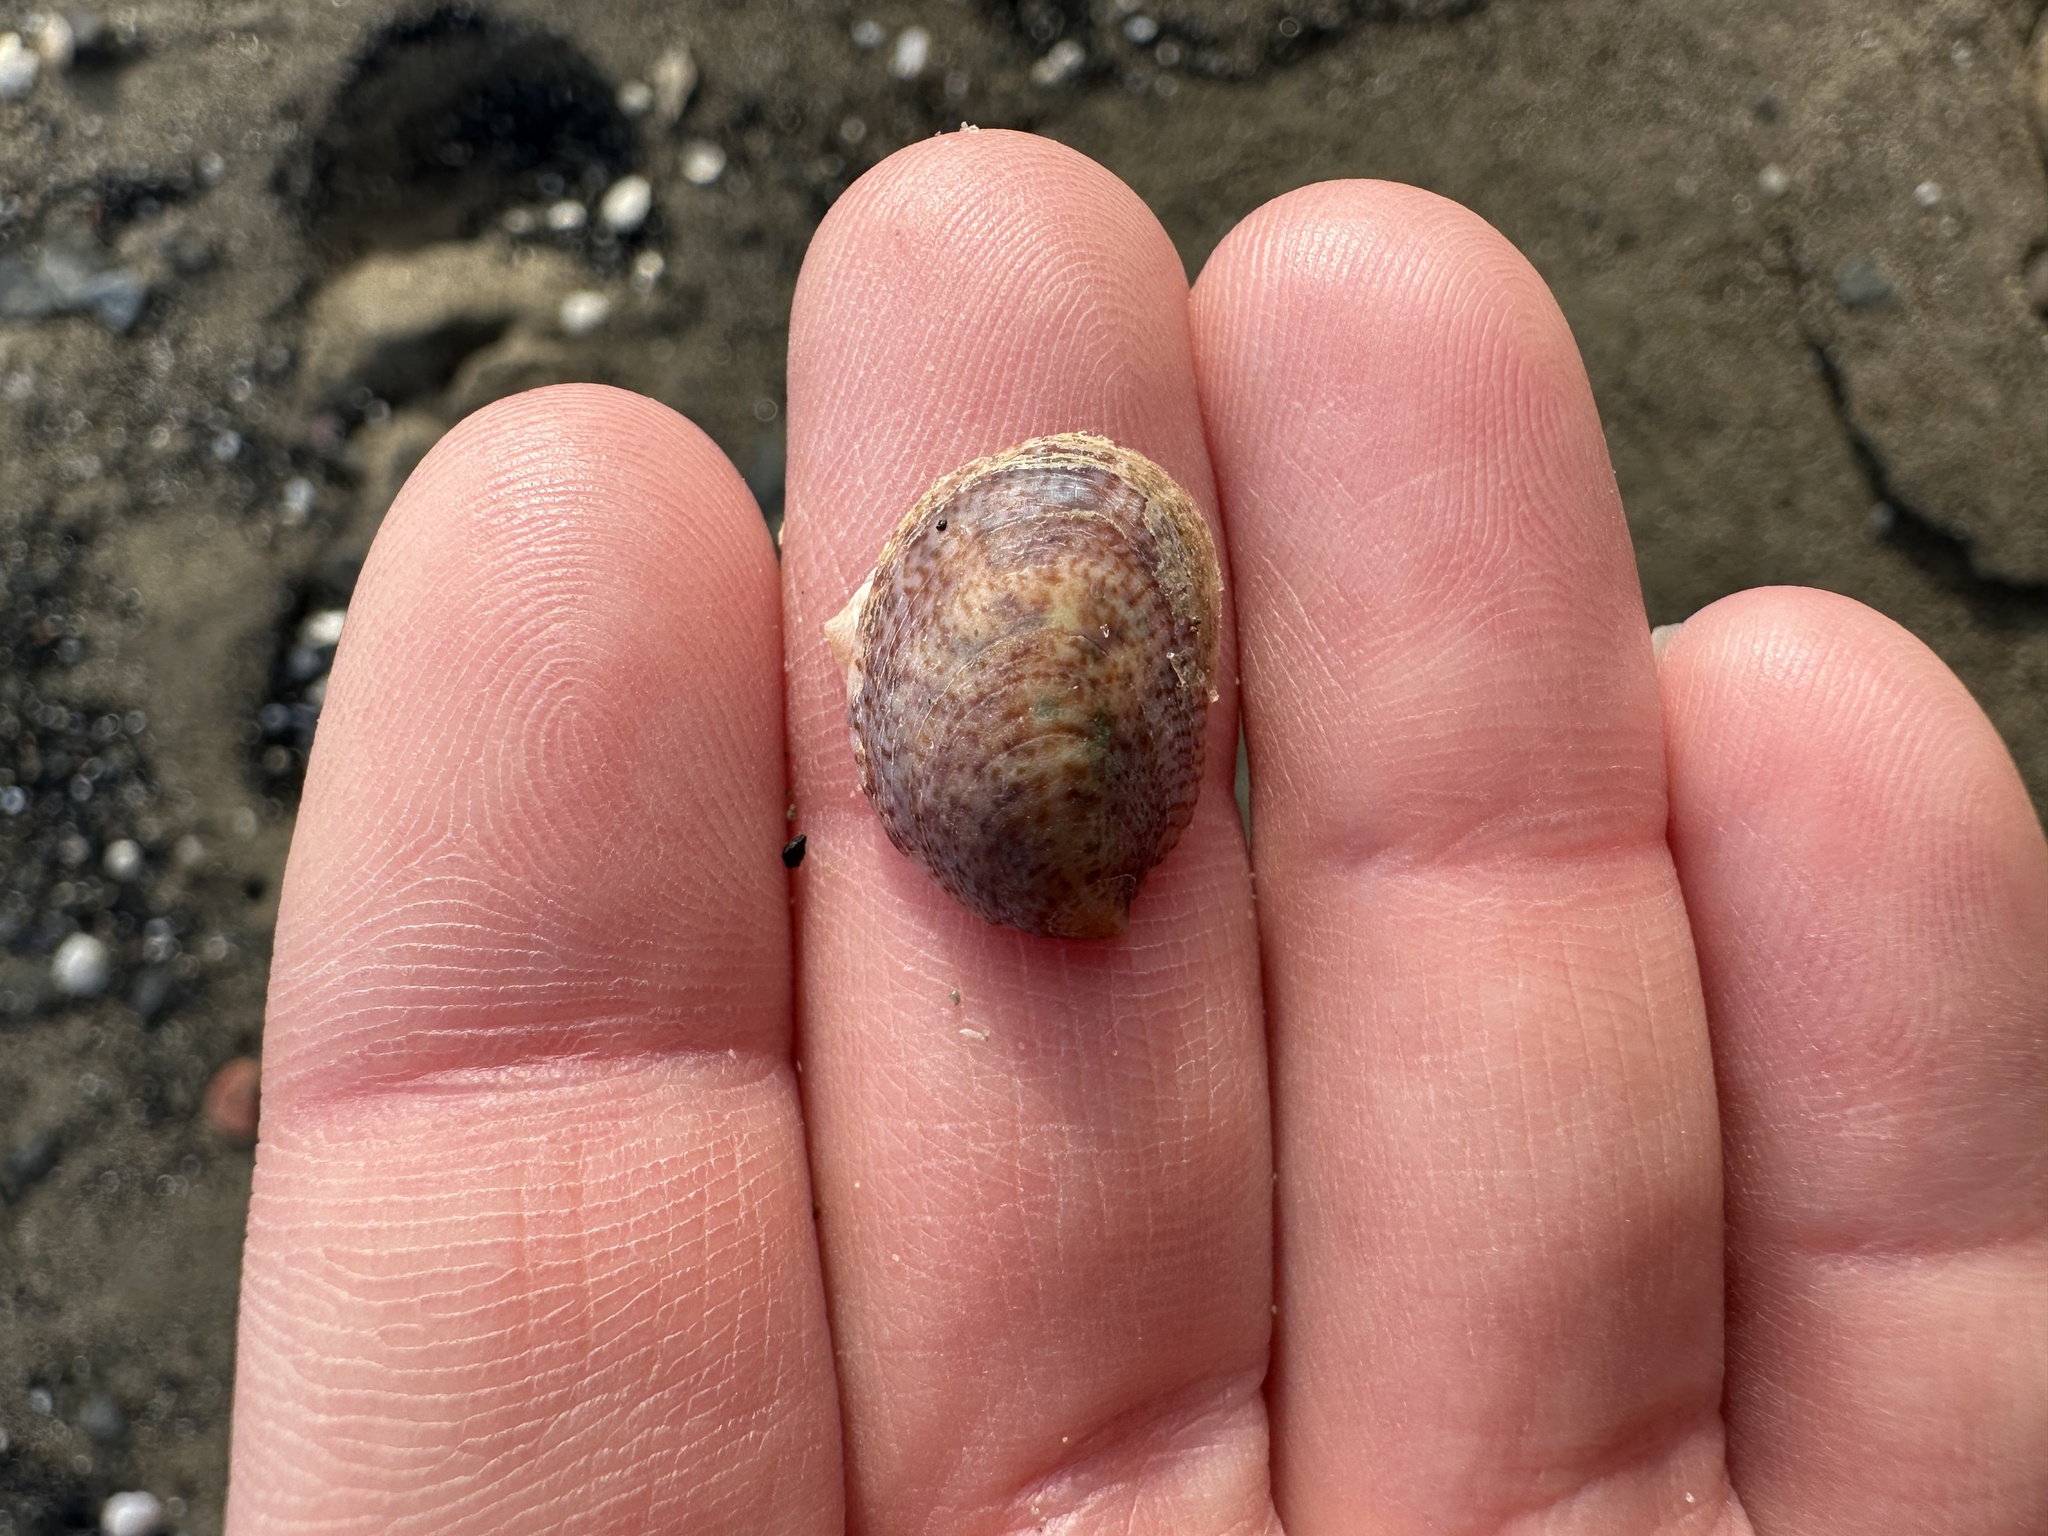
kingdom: Animalia
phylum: Mollusca
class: Gastropoda
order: Littorinimorpha
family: Calyptraeidae
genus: Crepidula
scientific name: Crepidula fornicata
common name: Slipper limpet
